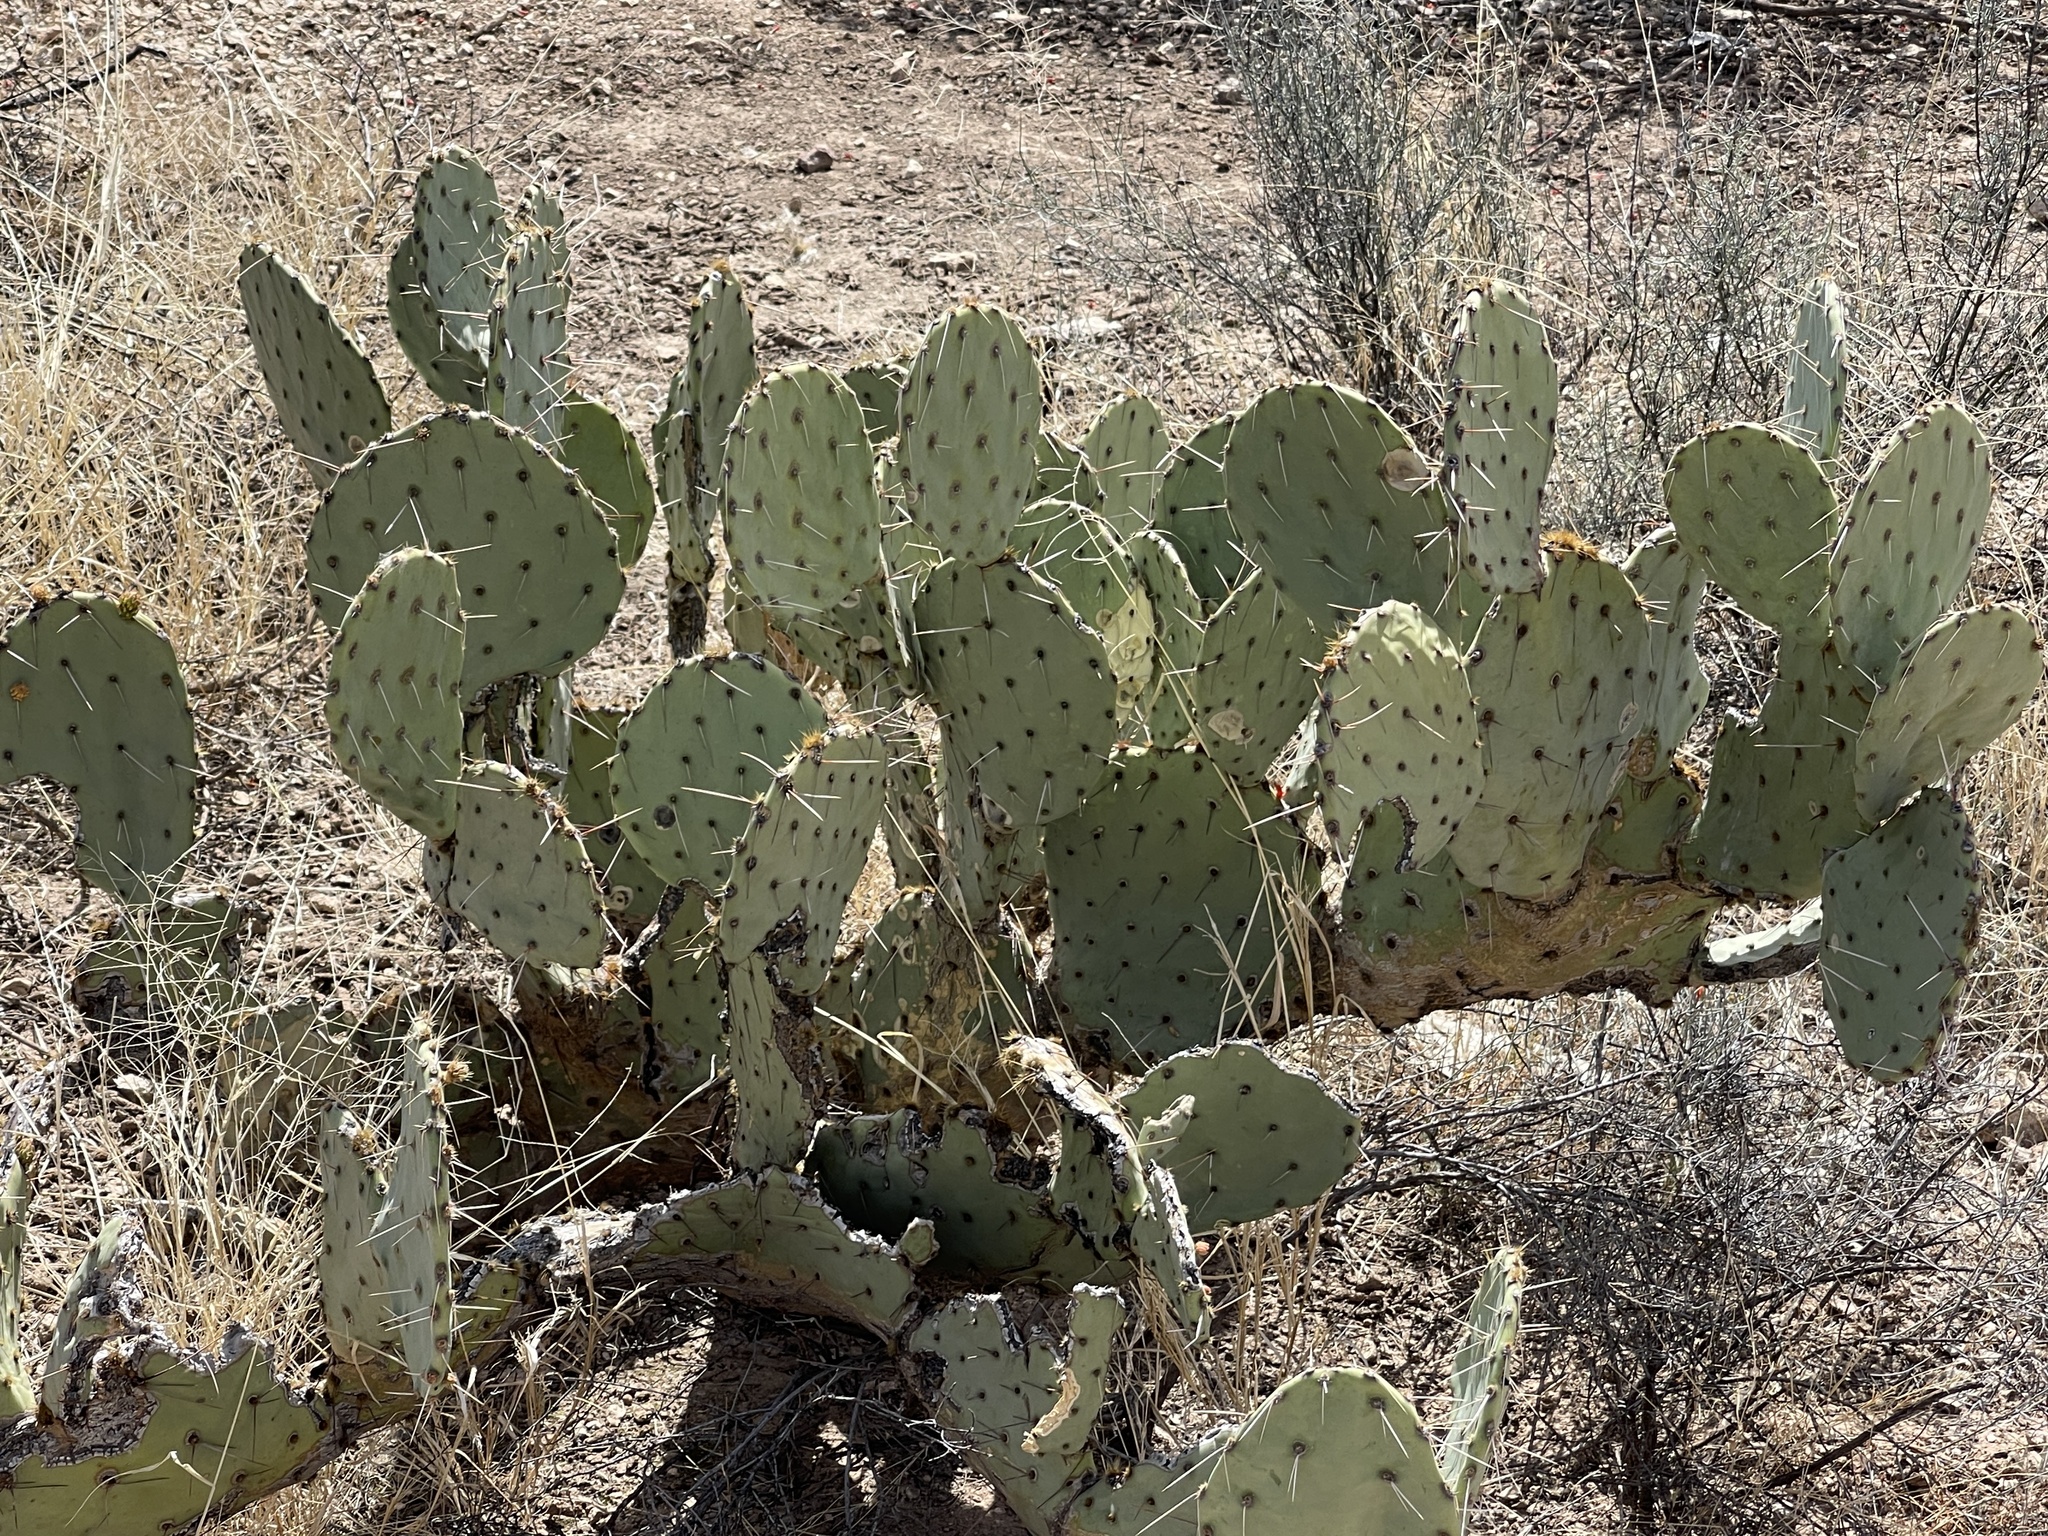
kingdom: Plantae
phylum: Tracheophyta
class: Magnoliopsida
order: Caryophyllales
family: Cactaceae
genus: Opuntia
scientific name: Opuntia engelmannii
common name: Cactus-apple
